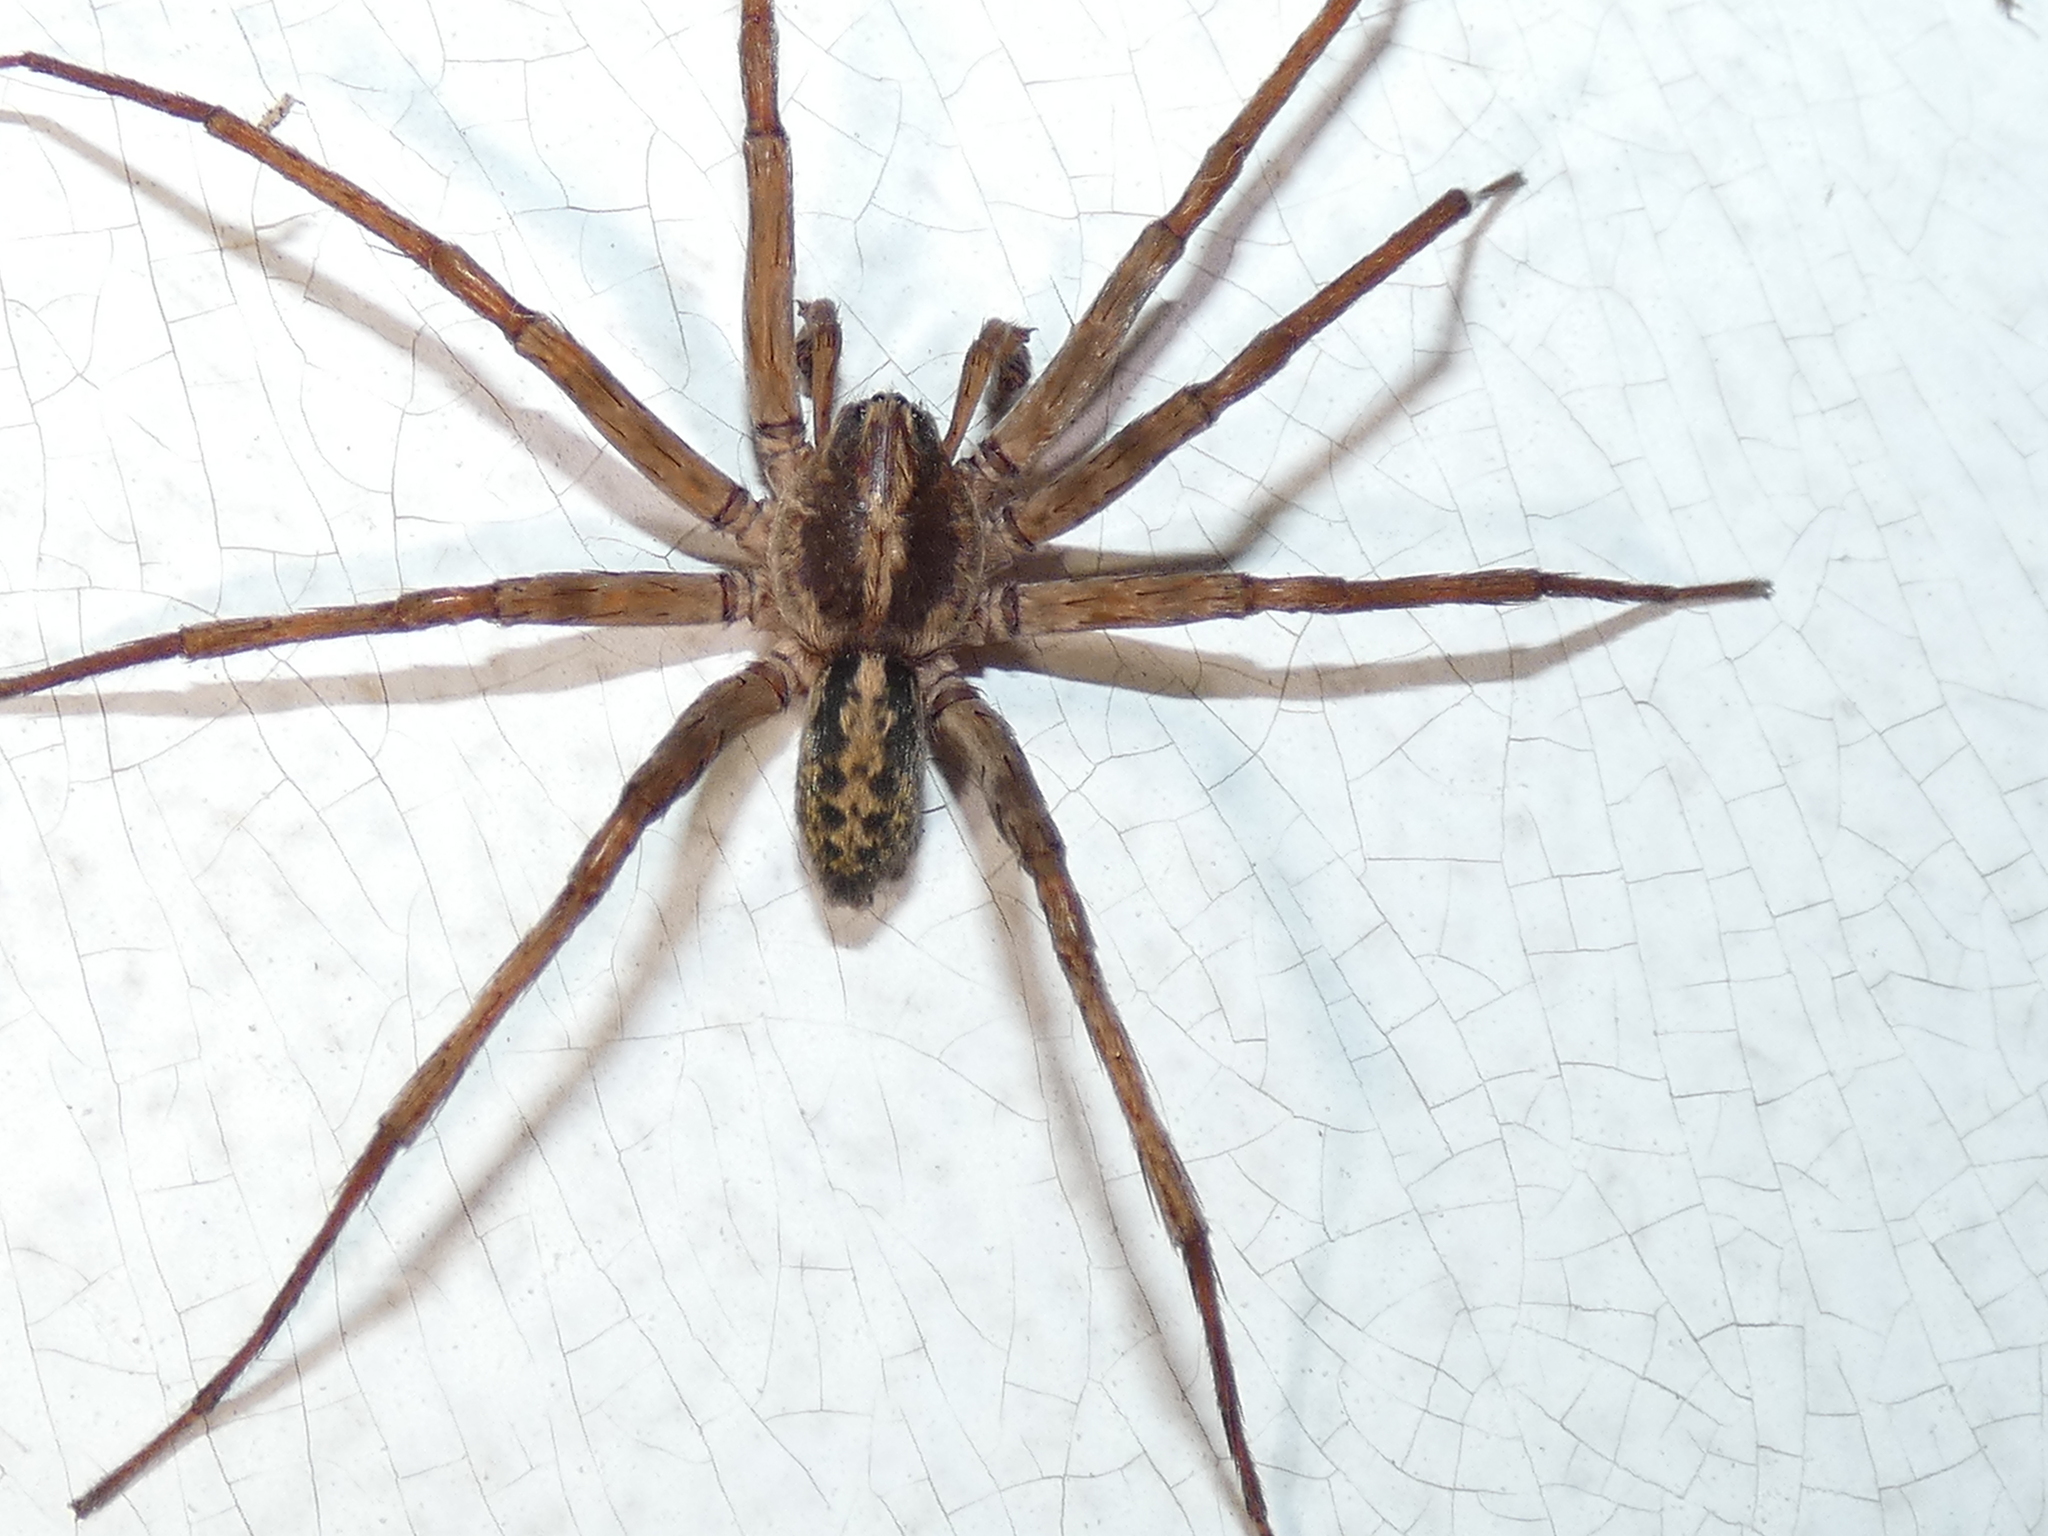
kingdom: Animalia
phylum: Arthropoda
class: Arachnida
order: Araneae
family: Ctenidae
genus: Ctenus
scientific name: Ctenus captiosus
